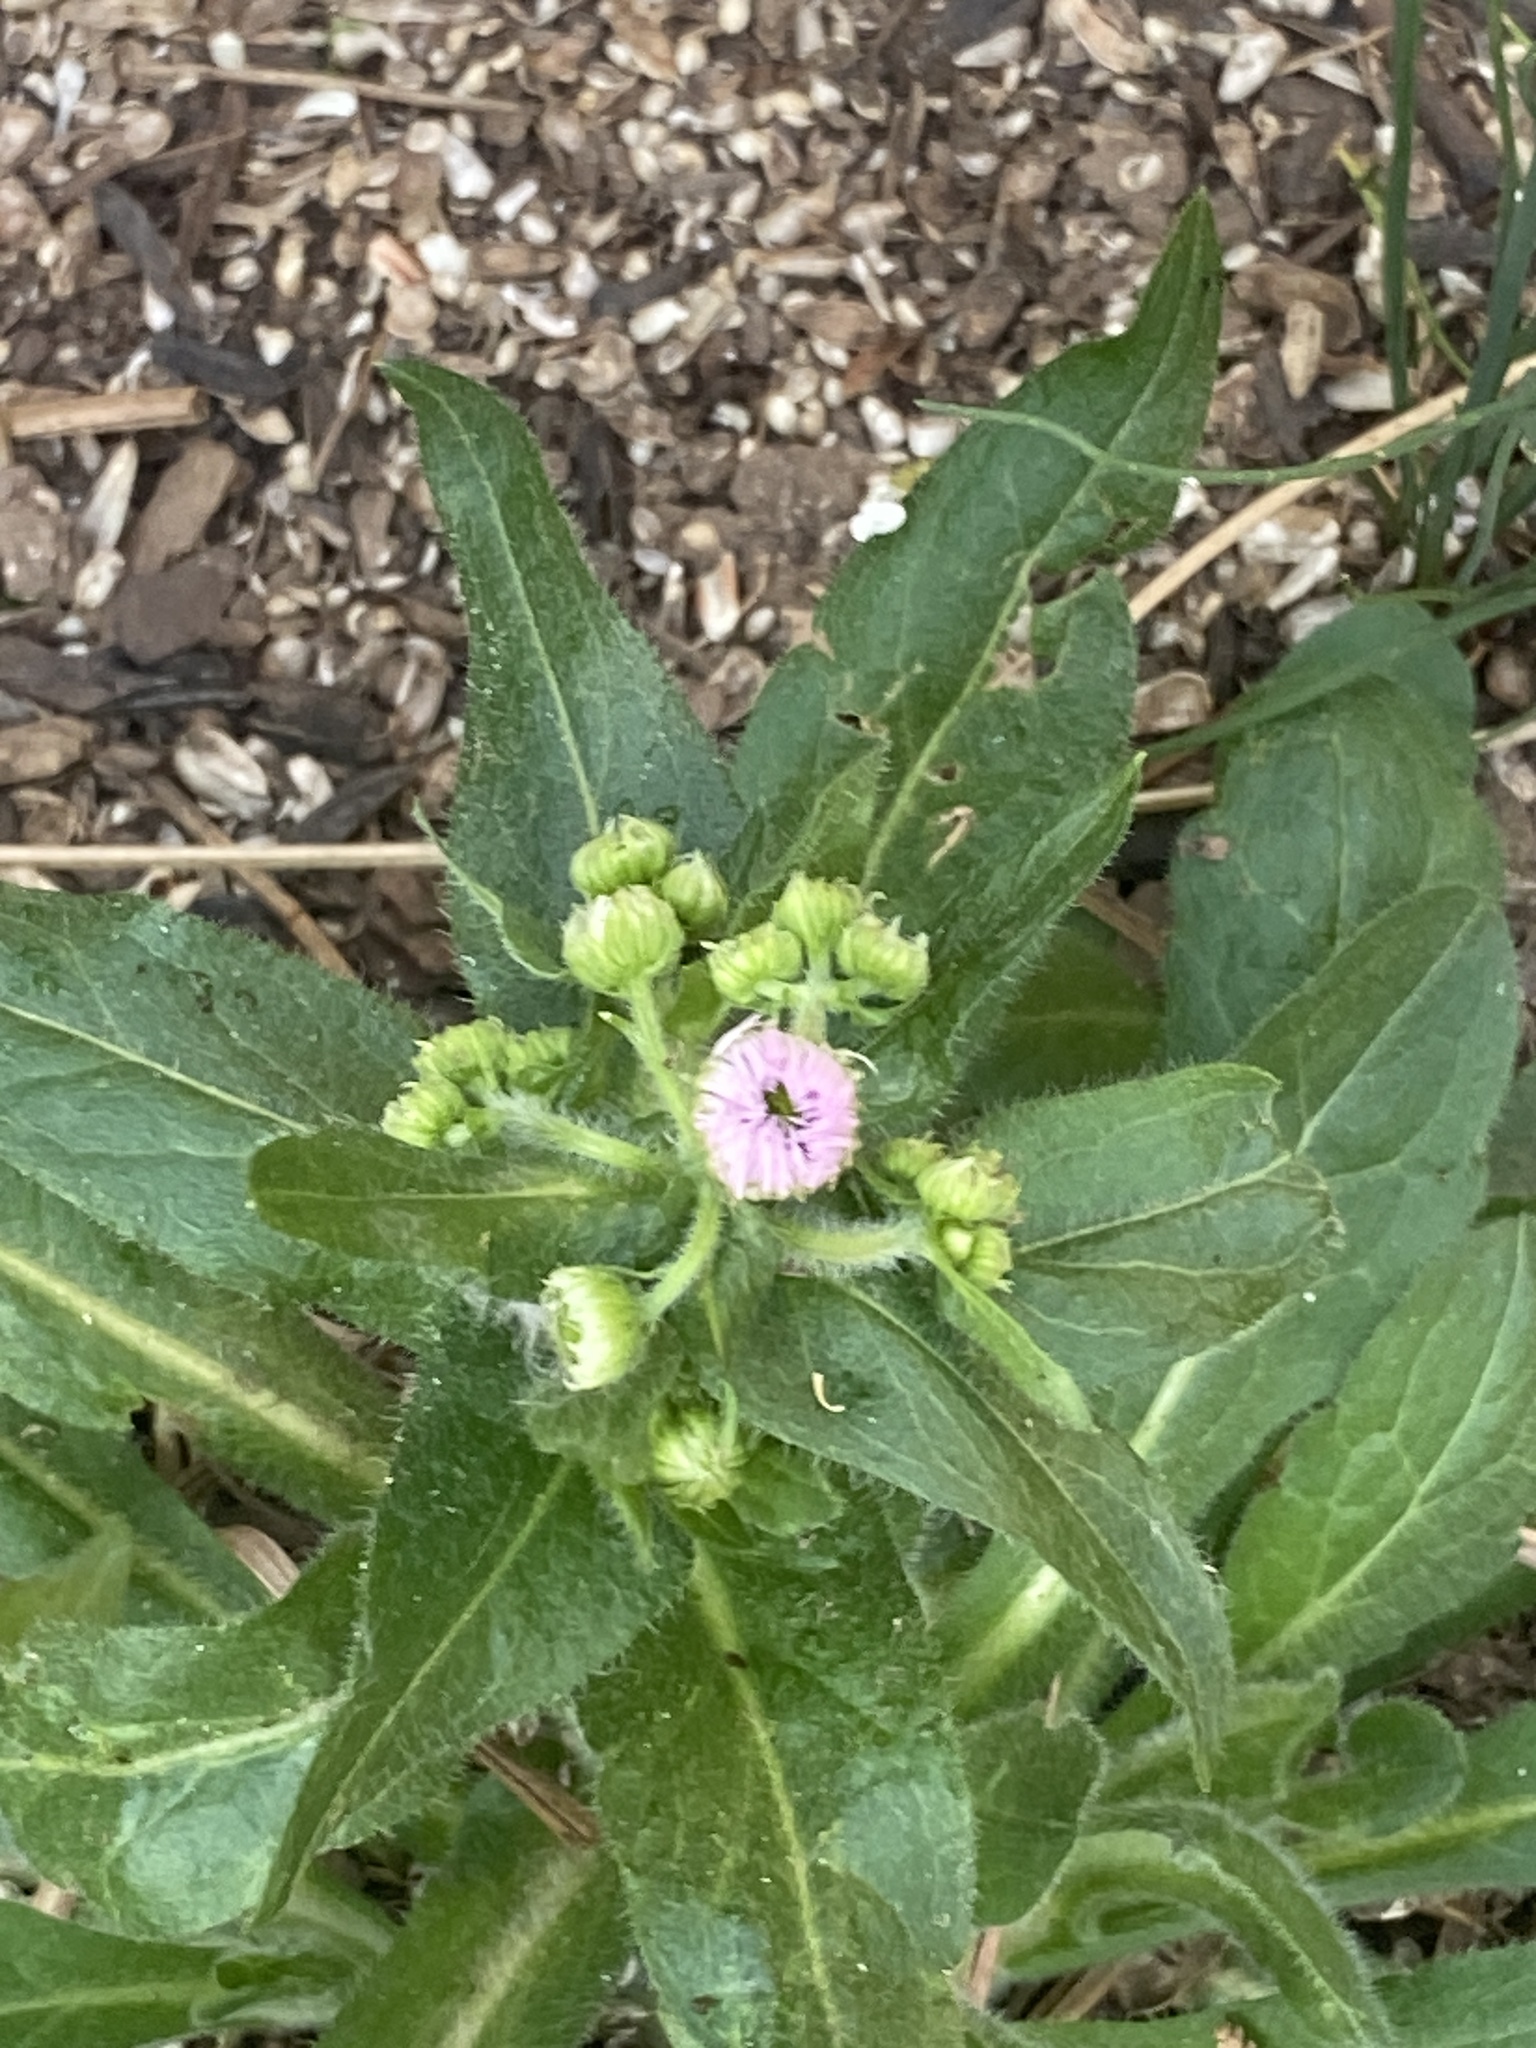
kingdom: Plantae
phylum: Tracheophyta
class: Magnoliopsida
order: Asterales
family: Asteraceae
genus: Erigeron
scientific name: Erigeron philadelphicus
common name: Robin's-plantain
